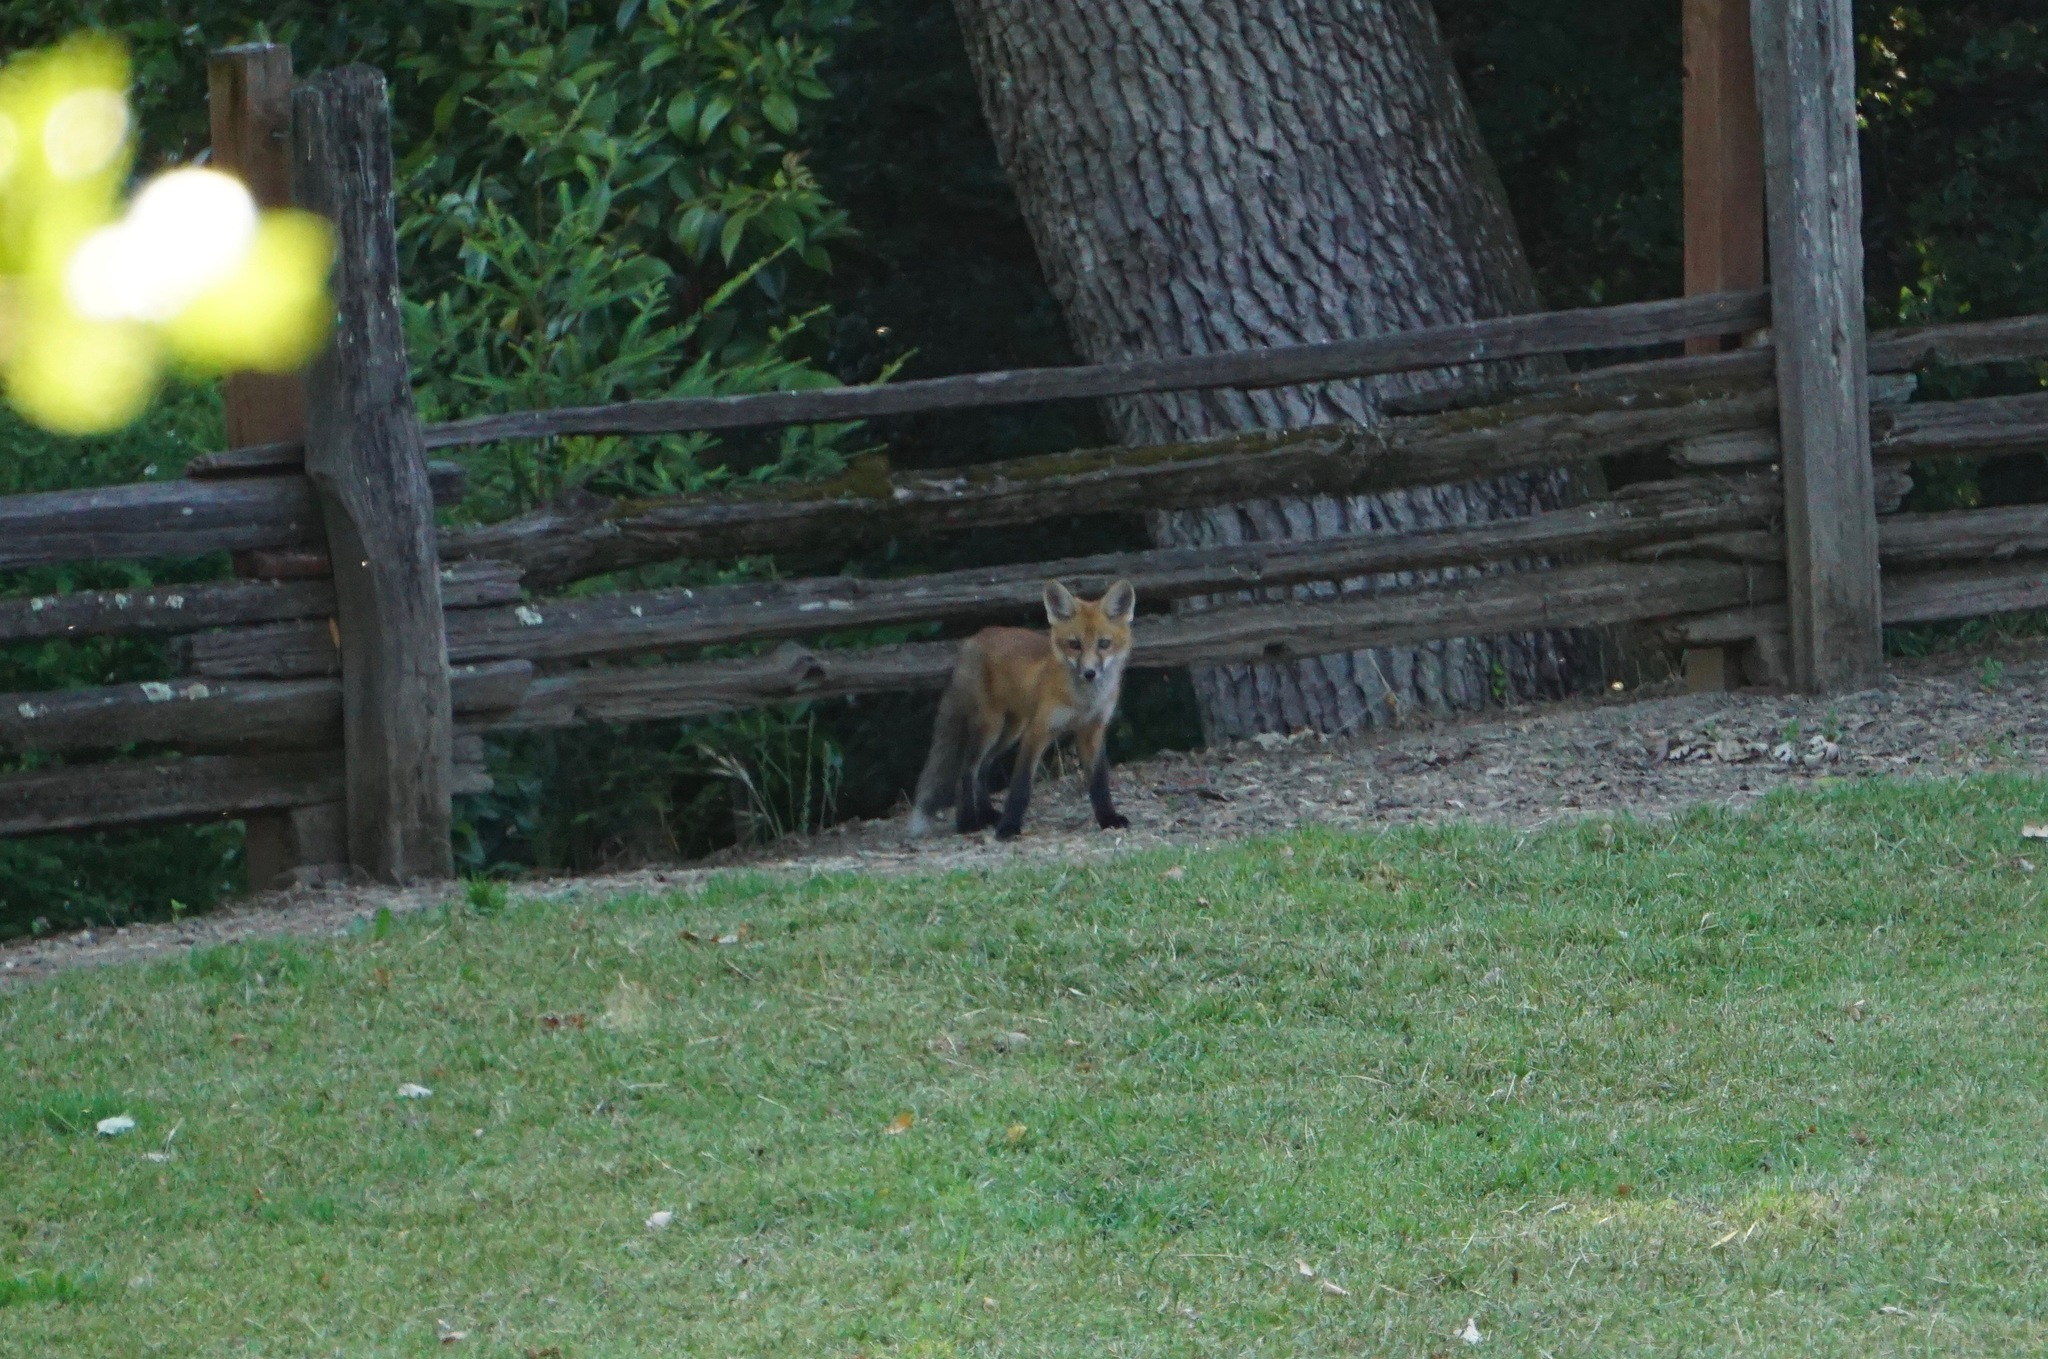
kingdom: Animalia
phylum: Chordata
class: Mammalia
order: Carnivora
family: Canidae
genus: Vulpes
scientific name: Vulpes vulpes
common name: Red fox
